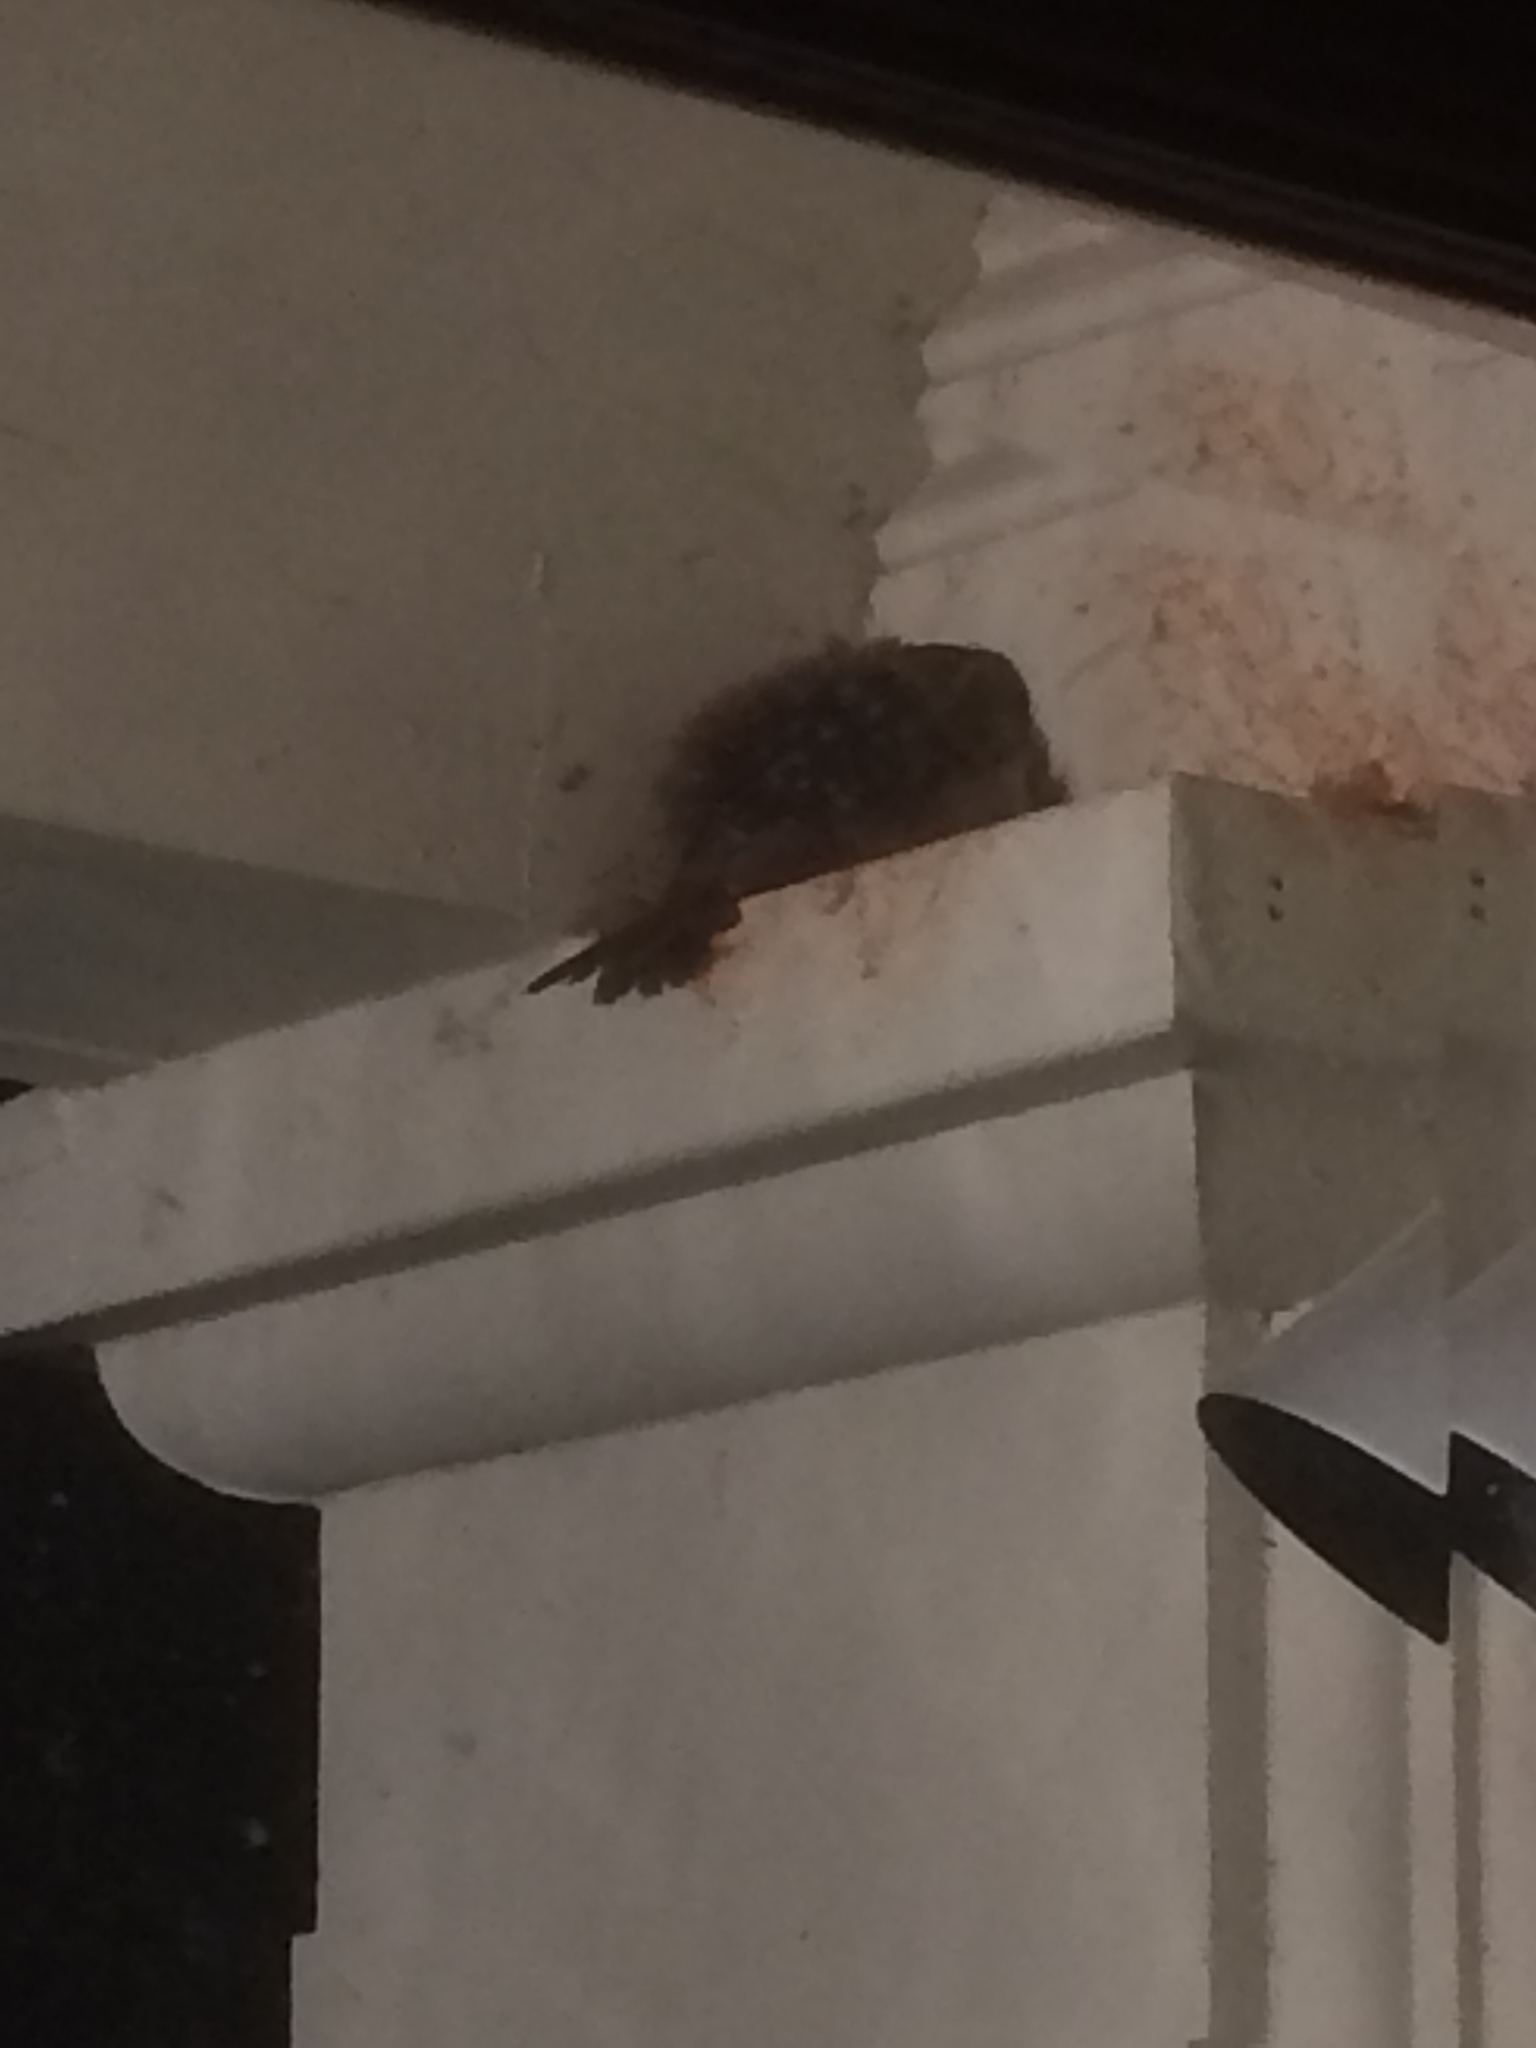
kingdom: Animalia
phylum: Chordata
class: Aves
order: Passeriformes
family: Troglodytidae
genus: Thryothorus
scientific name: Thryothorus ludovicianus
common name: Carolina wren
